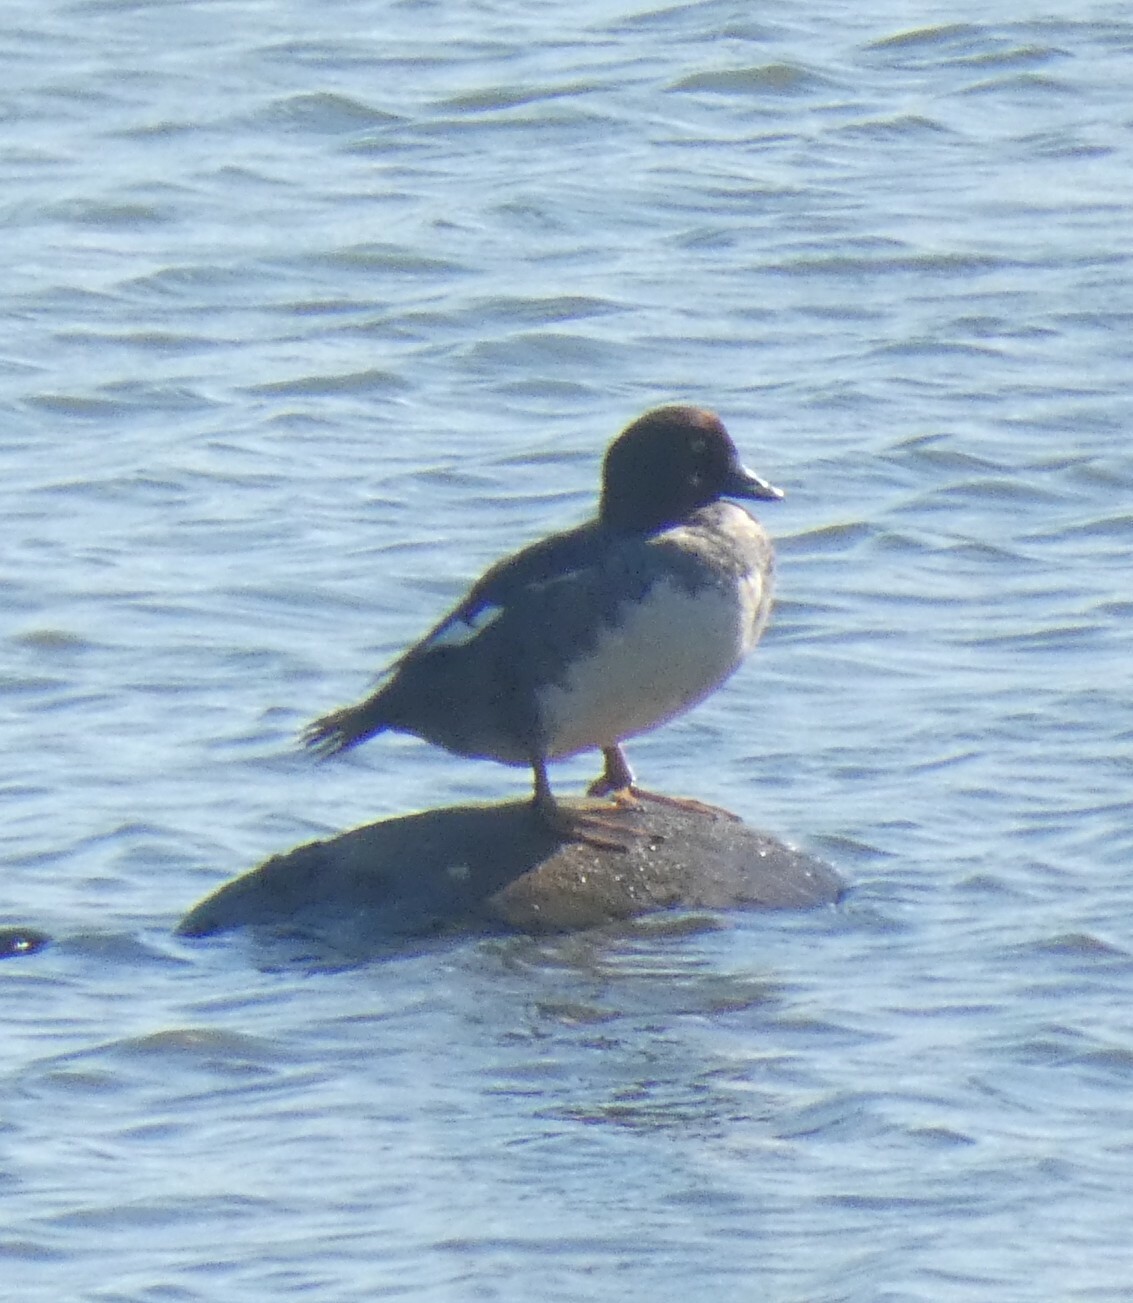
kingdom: Animalia
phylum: Chordata
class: Aves
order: Anseriformes
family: Anatidae
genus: Bucephala
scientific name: Bucephala clangula
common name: Common goldeneye
